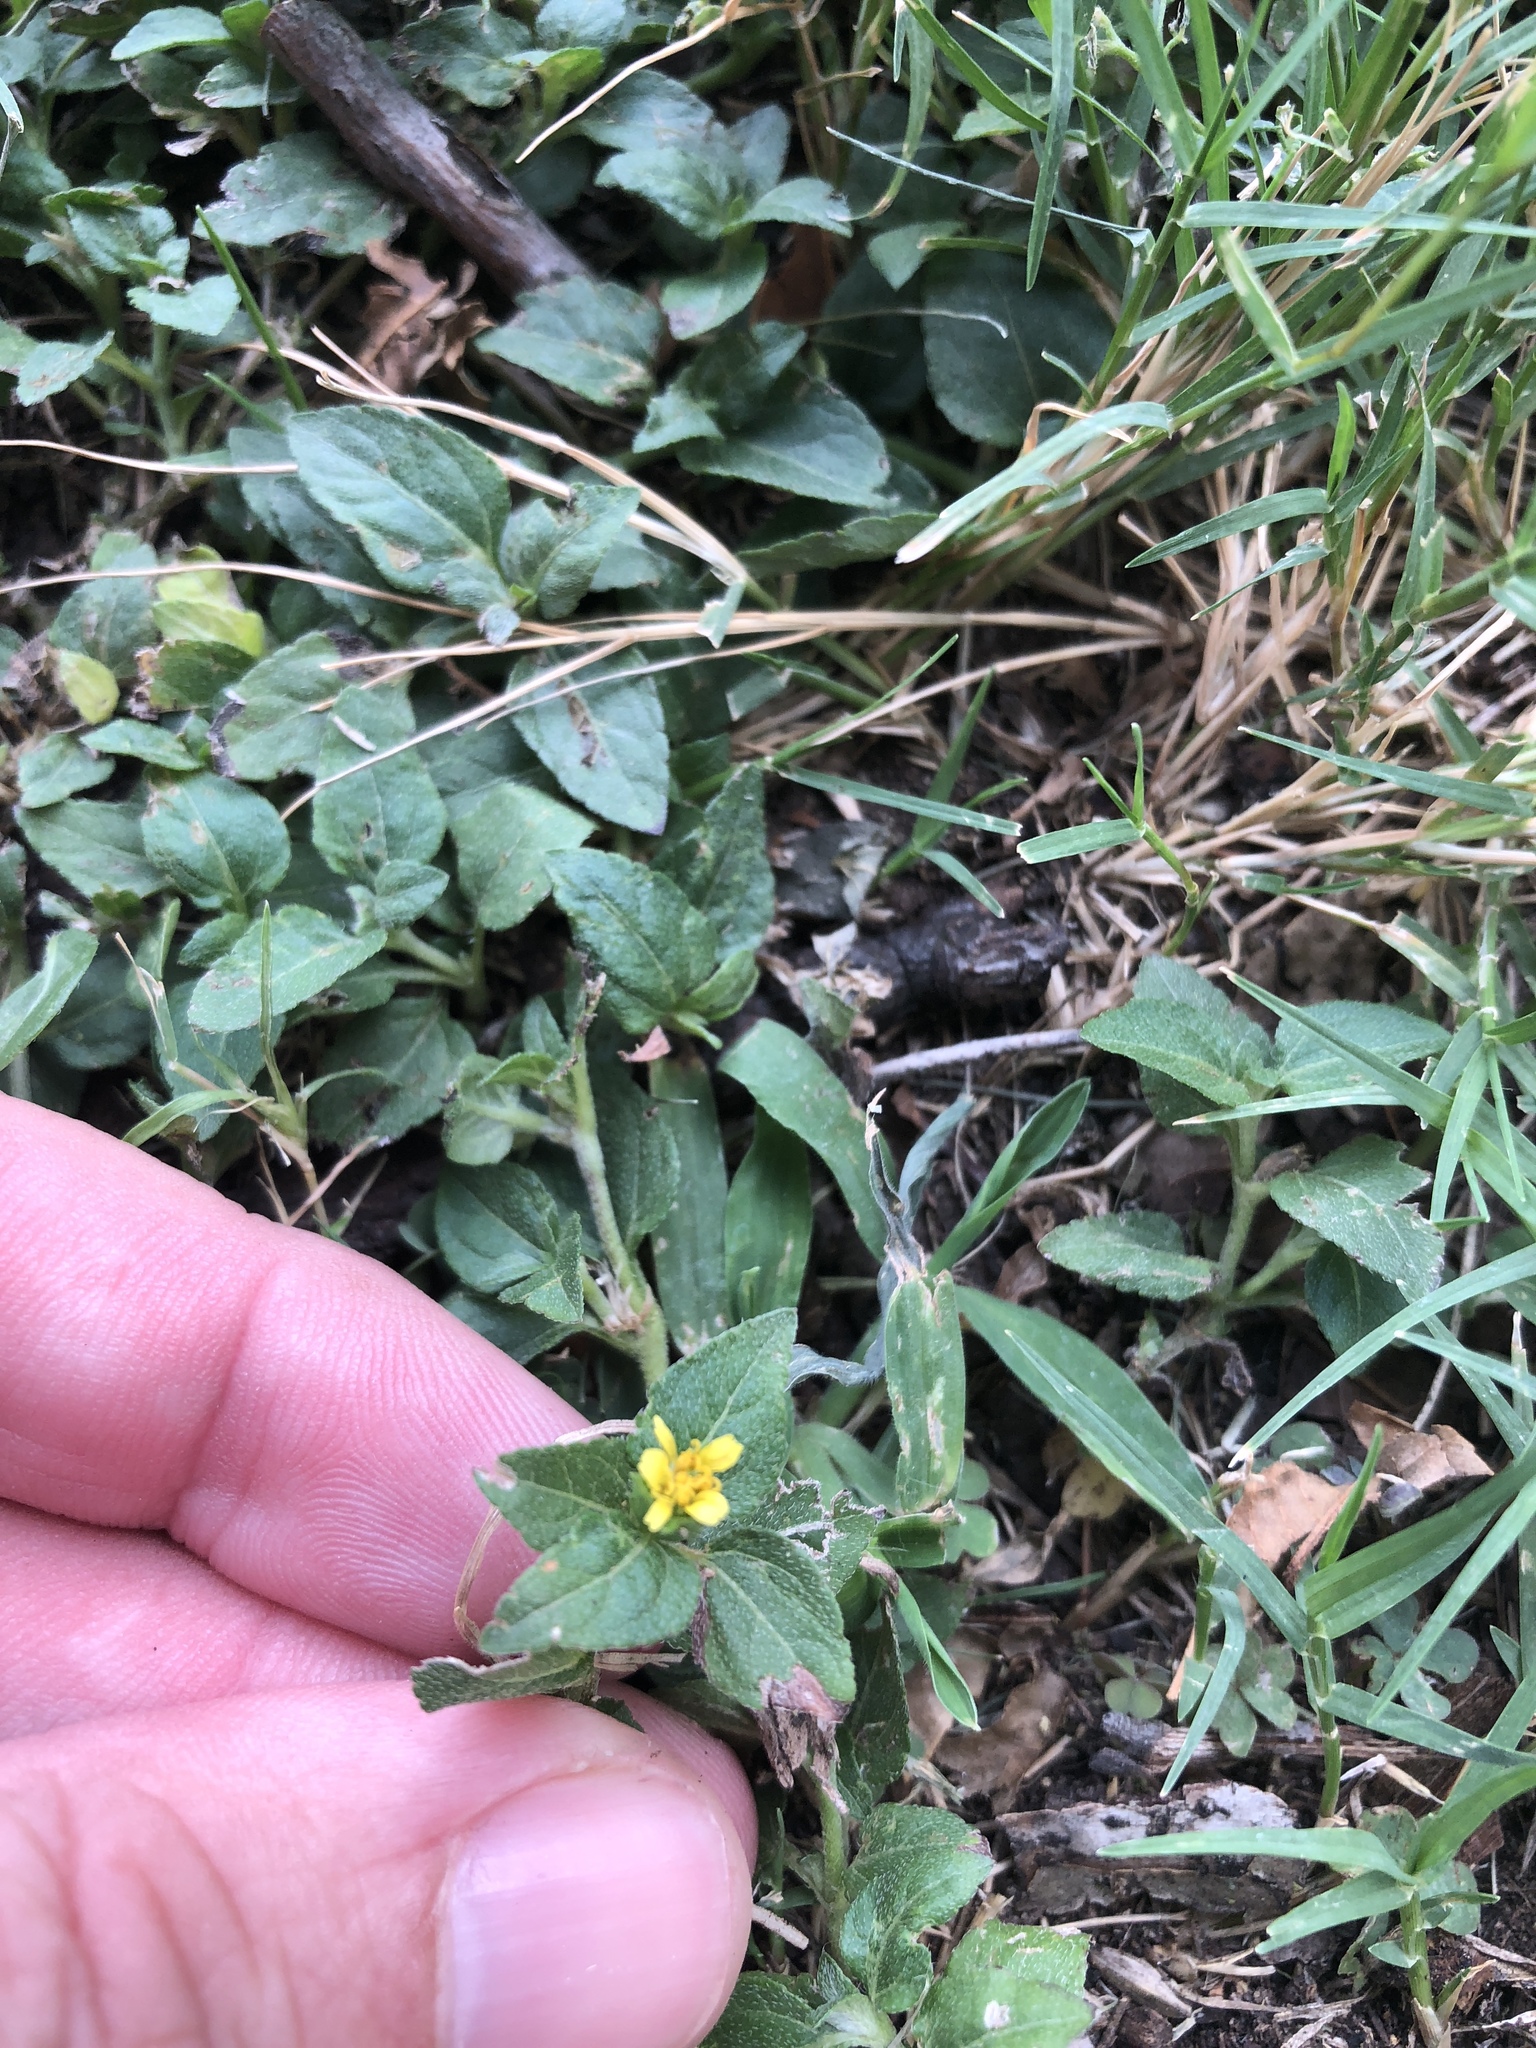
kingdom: Plantae
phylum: Tracheophyta
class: Magnoliopsida
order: Asterales
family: Asteraceae
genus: Calyptocarpus
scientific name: Calyptocarpus vialis
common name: Straggler daisy
